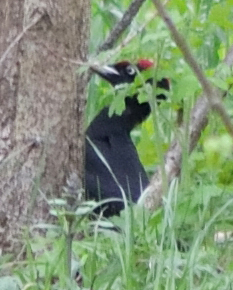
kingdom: Animalia
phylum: Chordata
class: Aves
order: Piciformes
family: Picidae
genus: Dryocopus
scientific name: Dryocopus martius
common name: Black woodpecker
